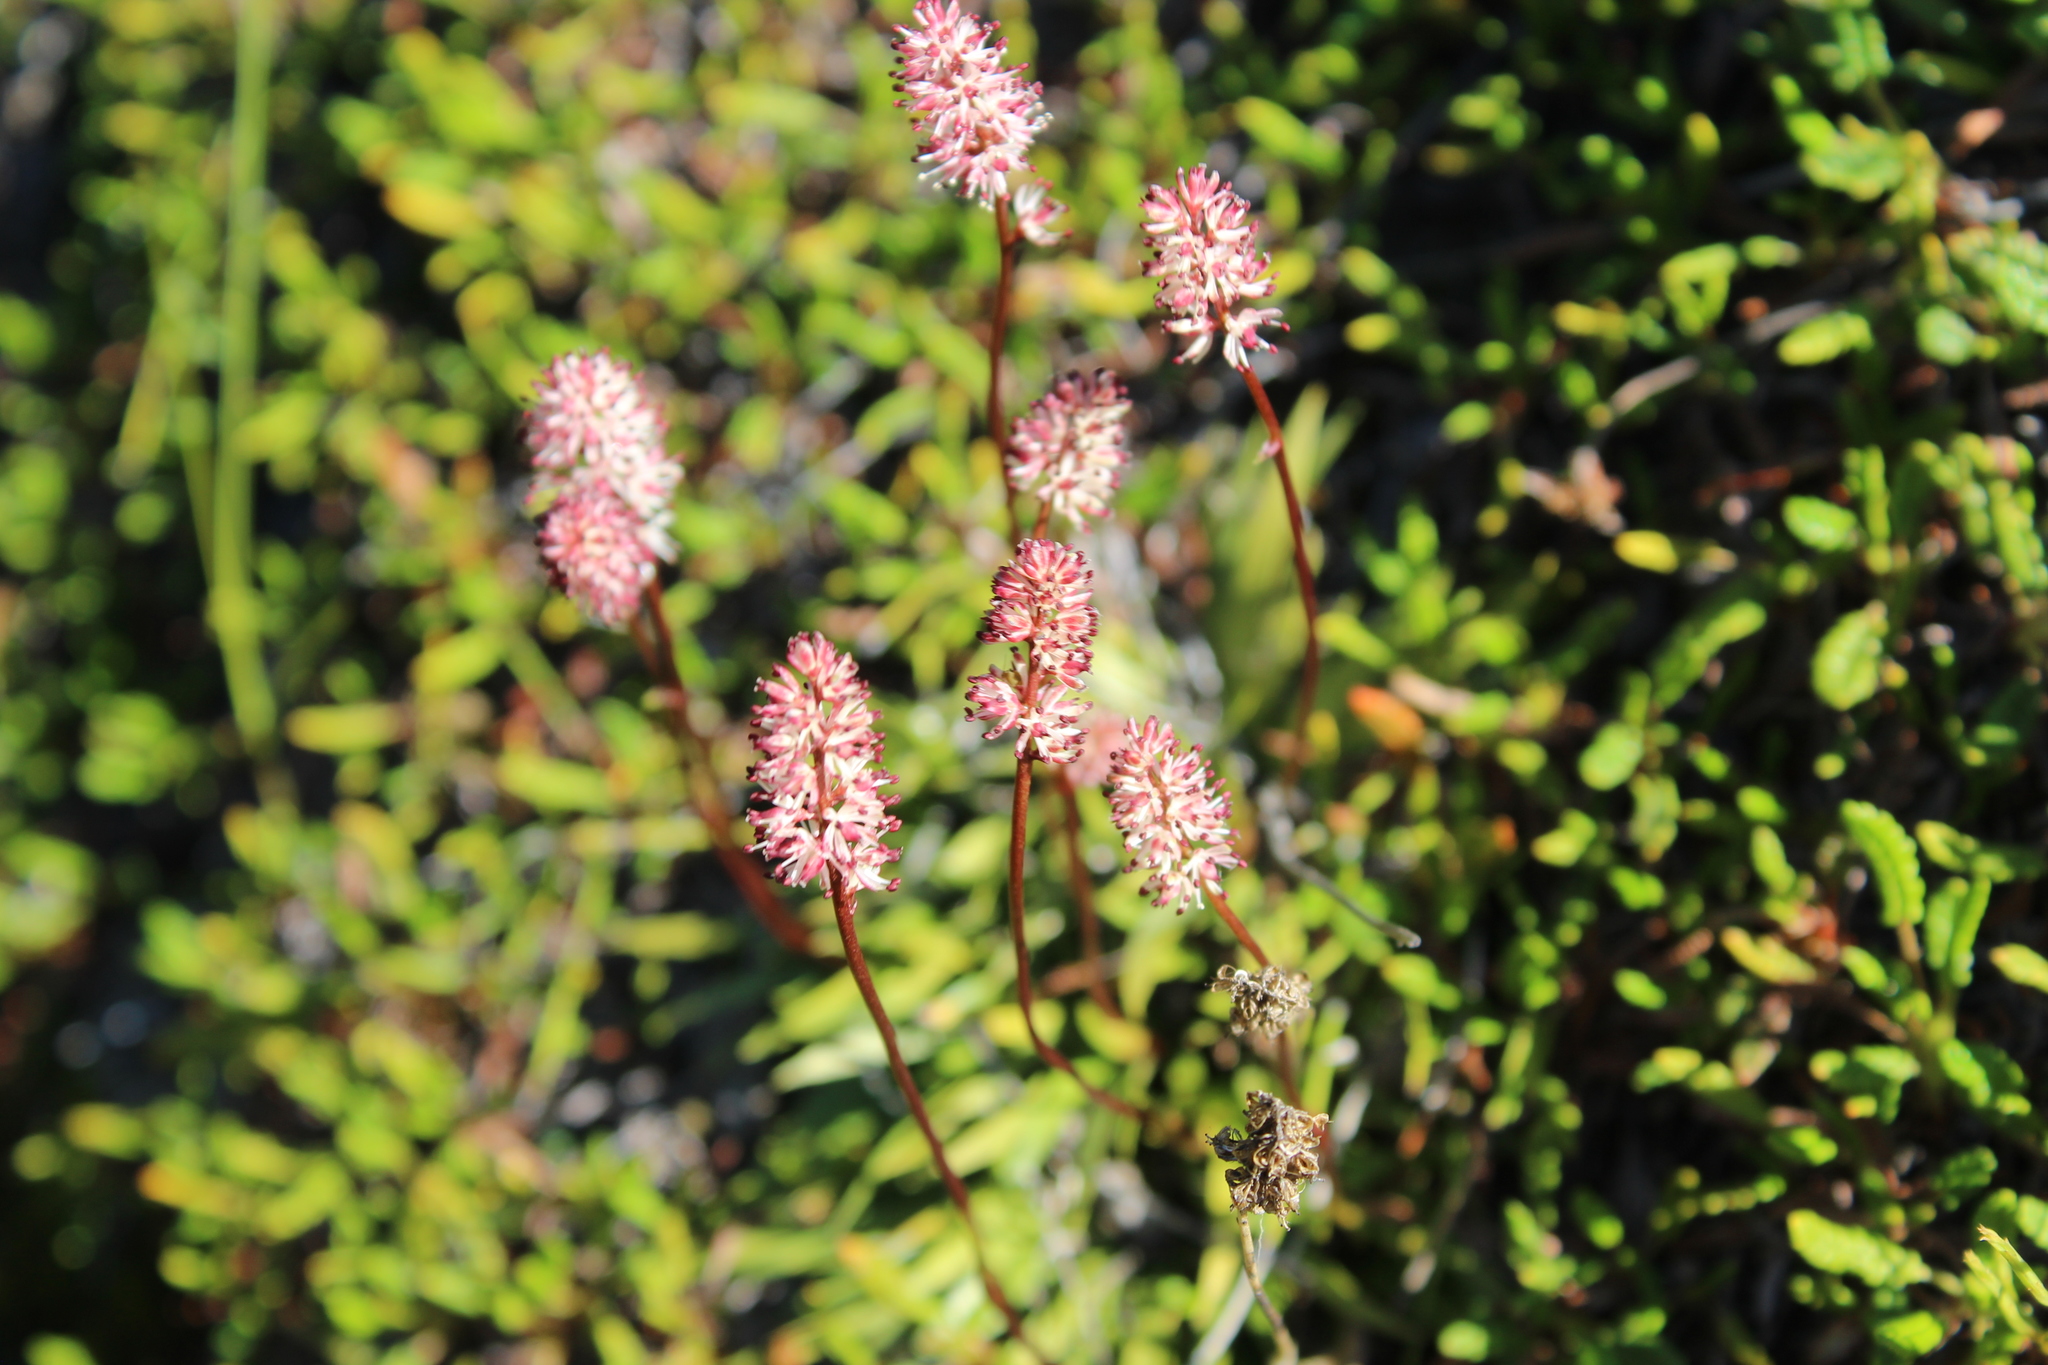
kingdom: Plantae
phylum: Tracheophyta
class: Liliopsida
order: Alismatales
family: Tofieldiaceae
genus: Tofieldia
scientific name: Tofieldia coccinea
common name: Northern false asphodel
